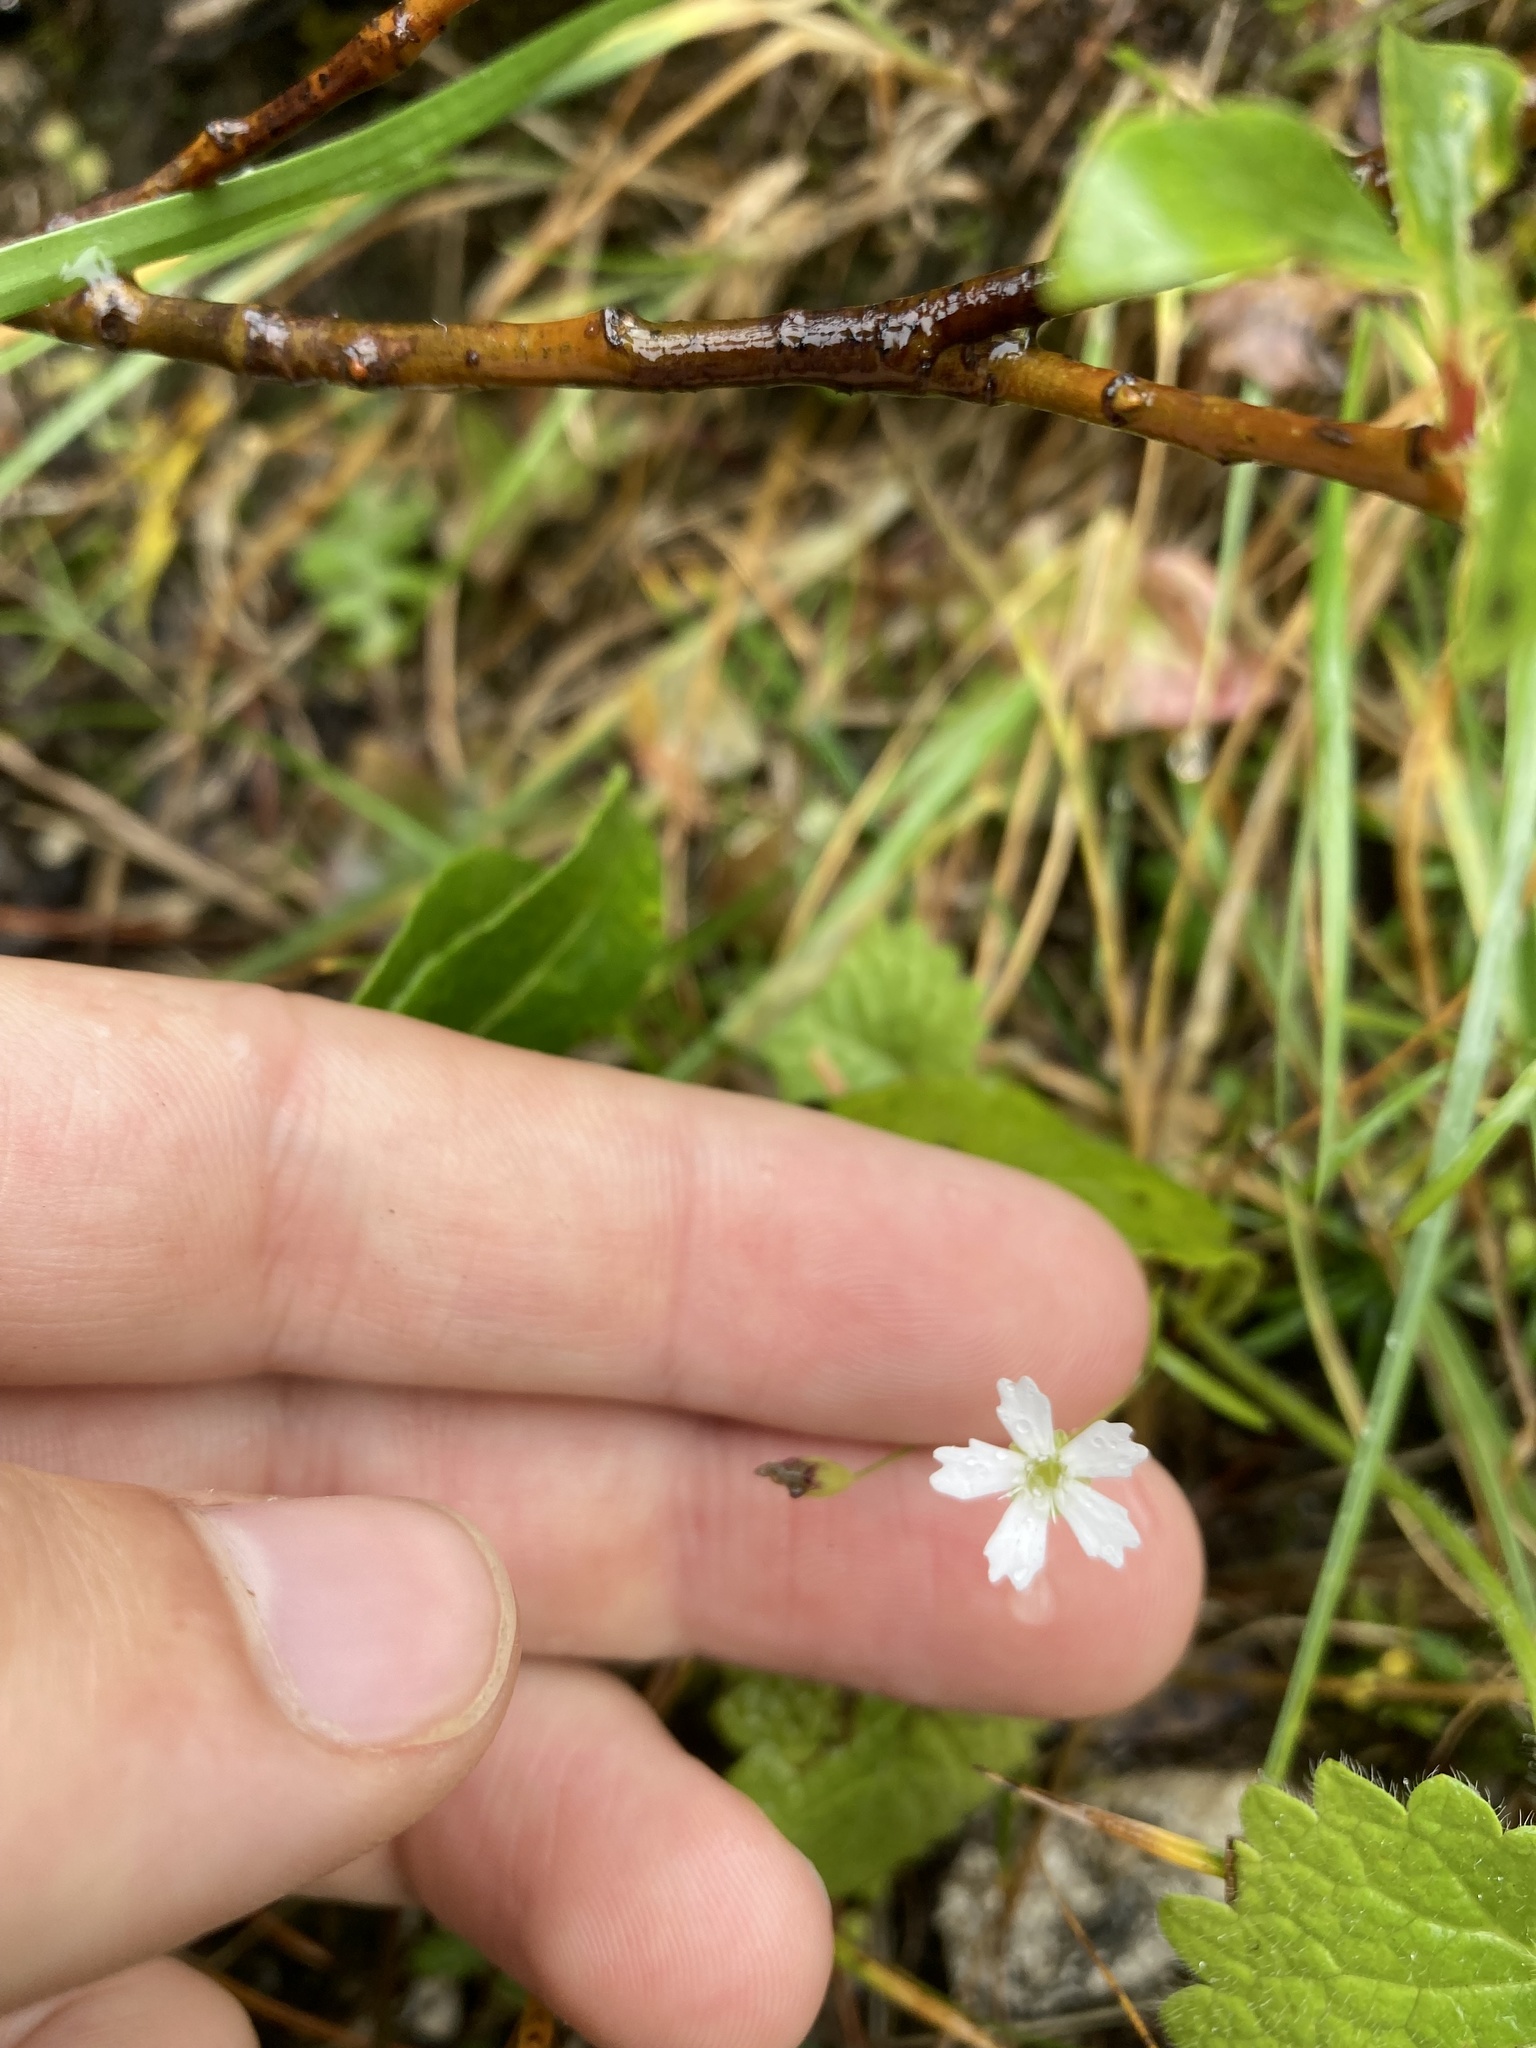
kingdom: Plantae
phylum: Tracheophyta
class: Magnoliopsida
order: Caryophyllales
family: Caryophyllaceae
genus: Heliosperma
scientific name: Heliosperma pusillum
